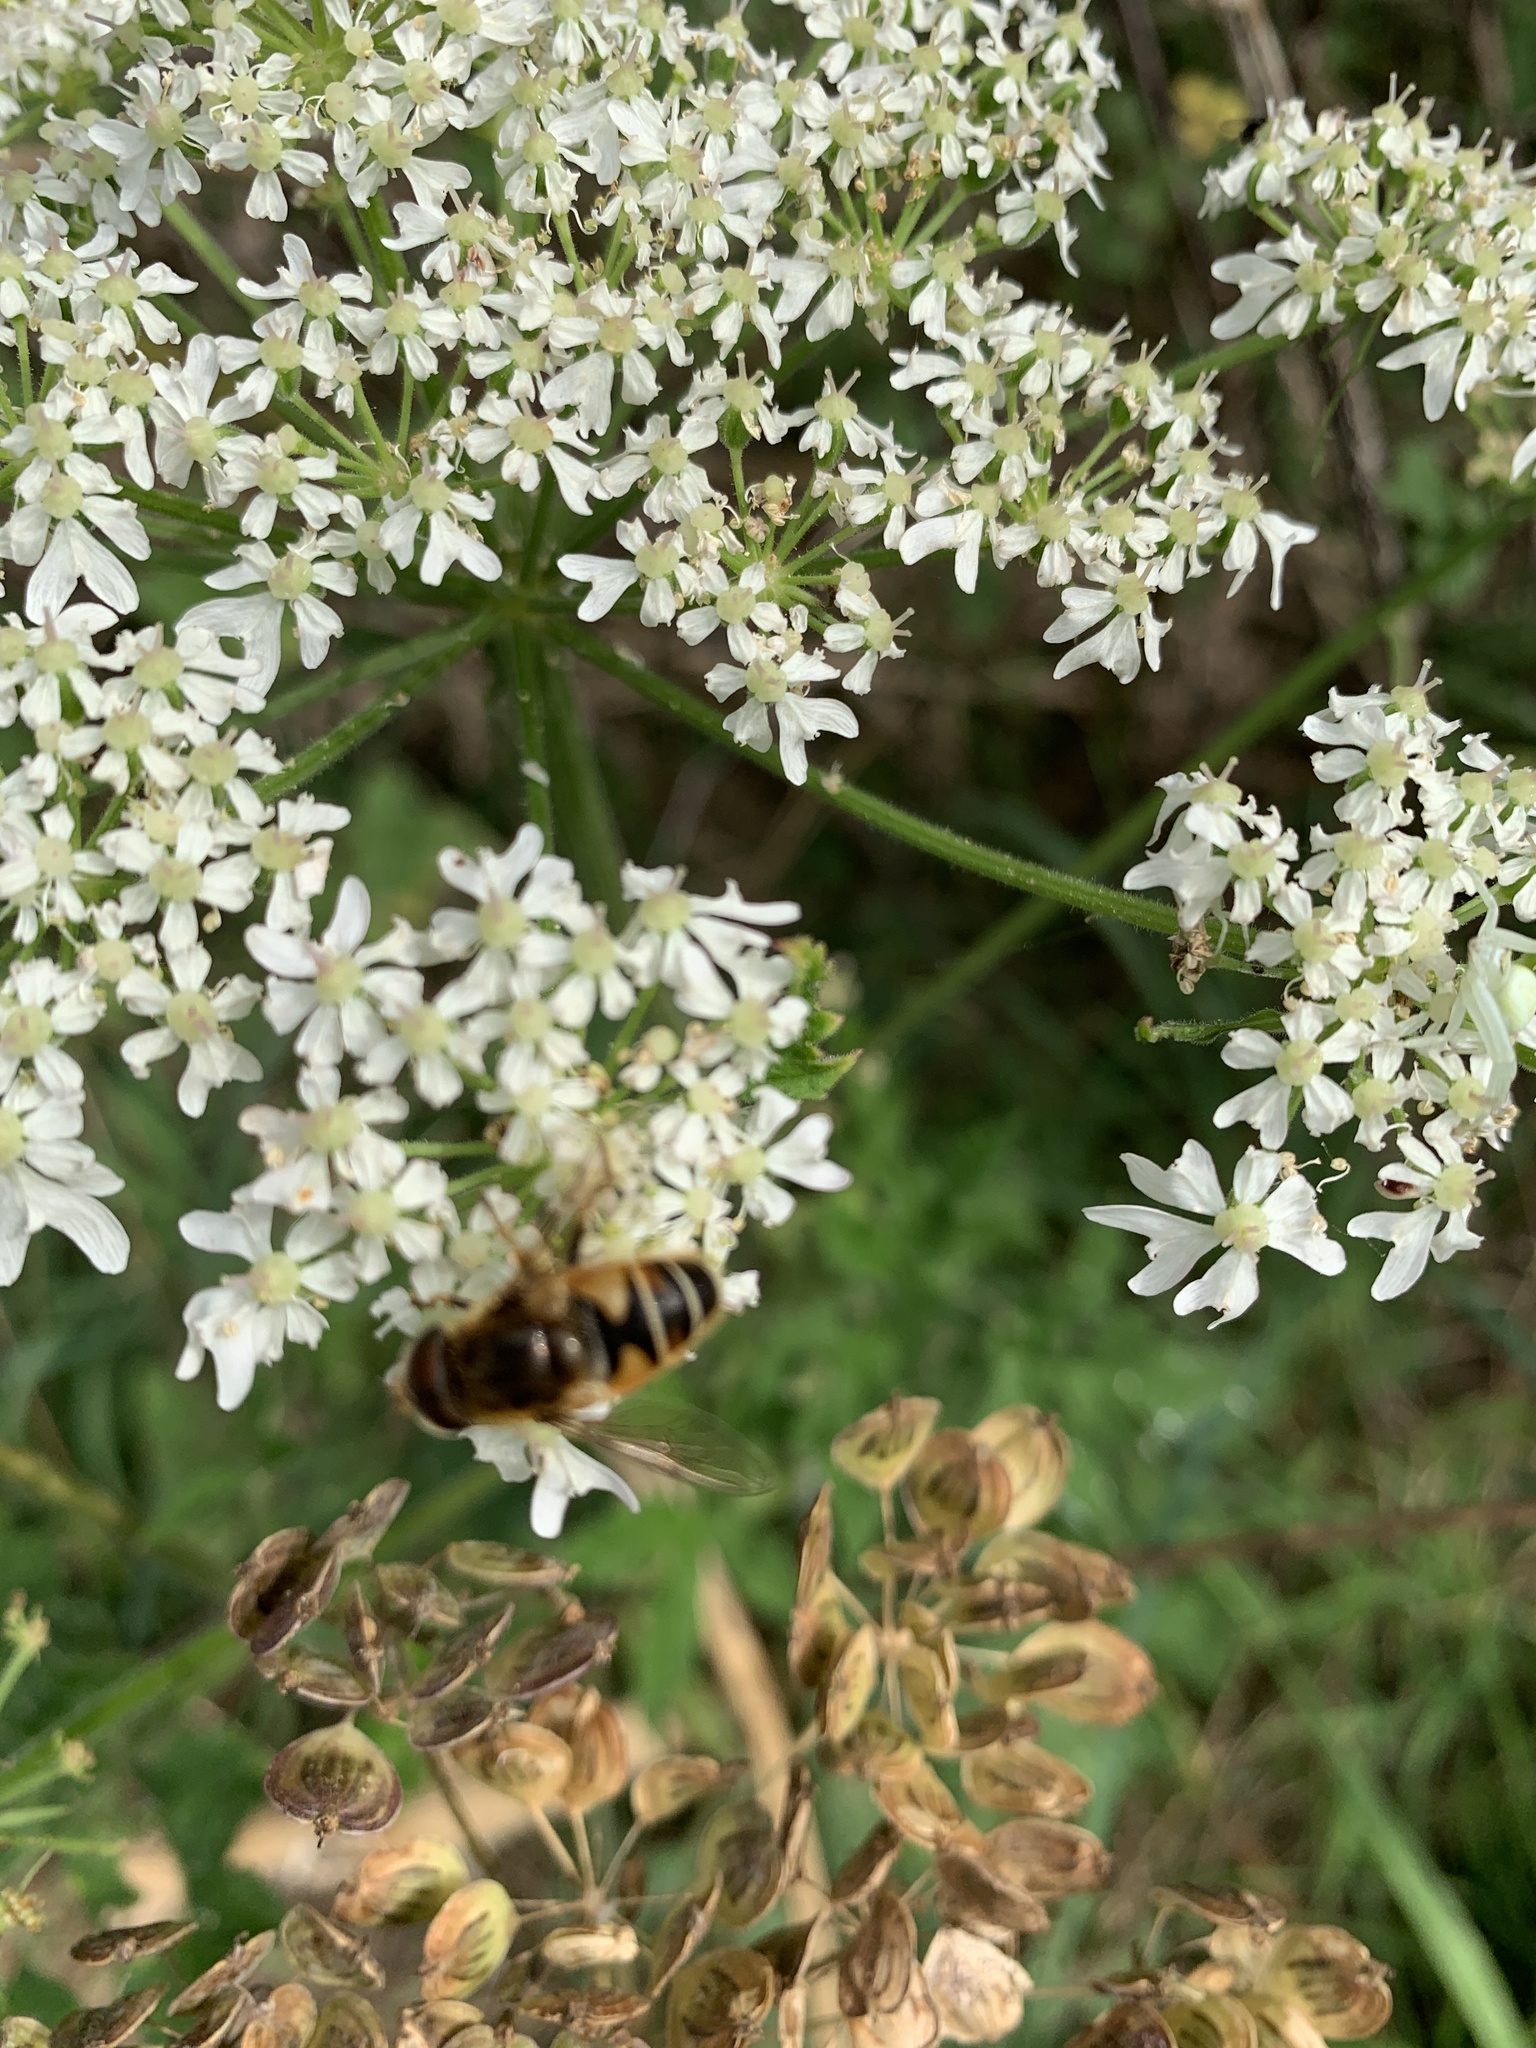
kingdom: Animalia
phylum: Arthropoda
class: Insecta
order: Diptera
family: Syrphidae
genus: Eristalis
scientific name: Eristalis nemorum
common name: Orange-spined drone fly
